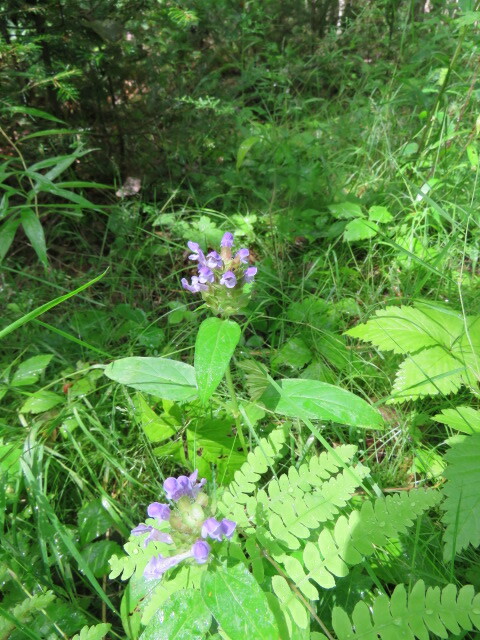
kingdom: Plantae
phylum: Tracheophyta
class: Magnoliopsida
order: Lamiales
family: Lamiaceae
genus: Prunella
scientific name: Prunella vulgaris
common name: Heal-all
